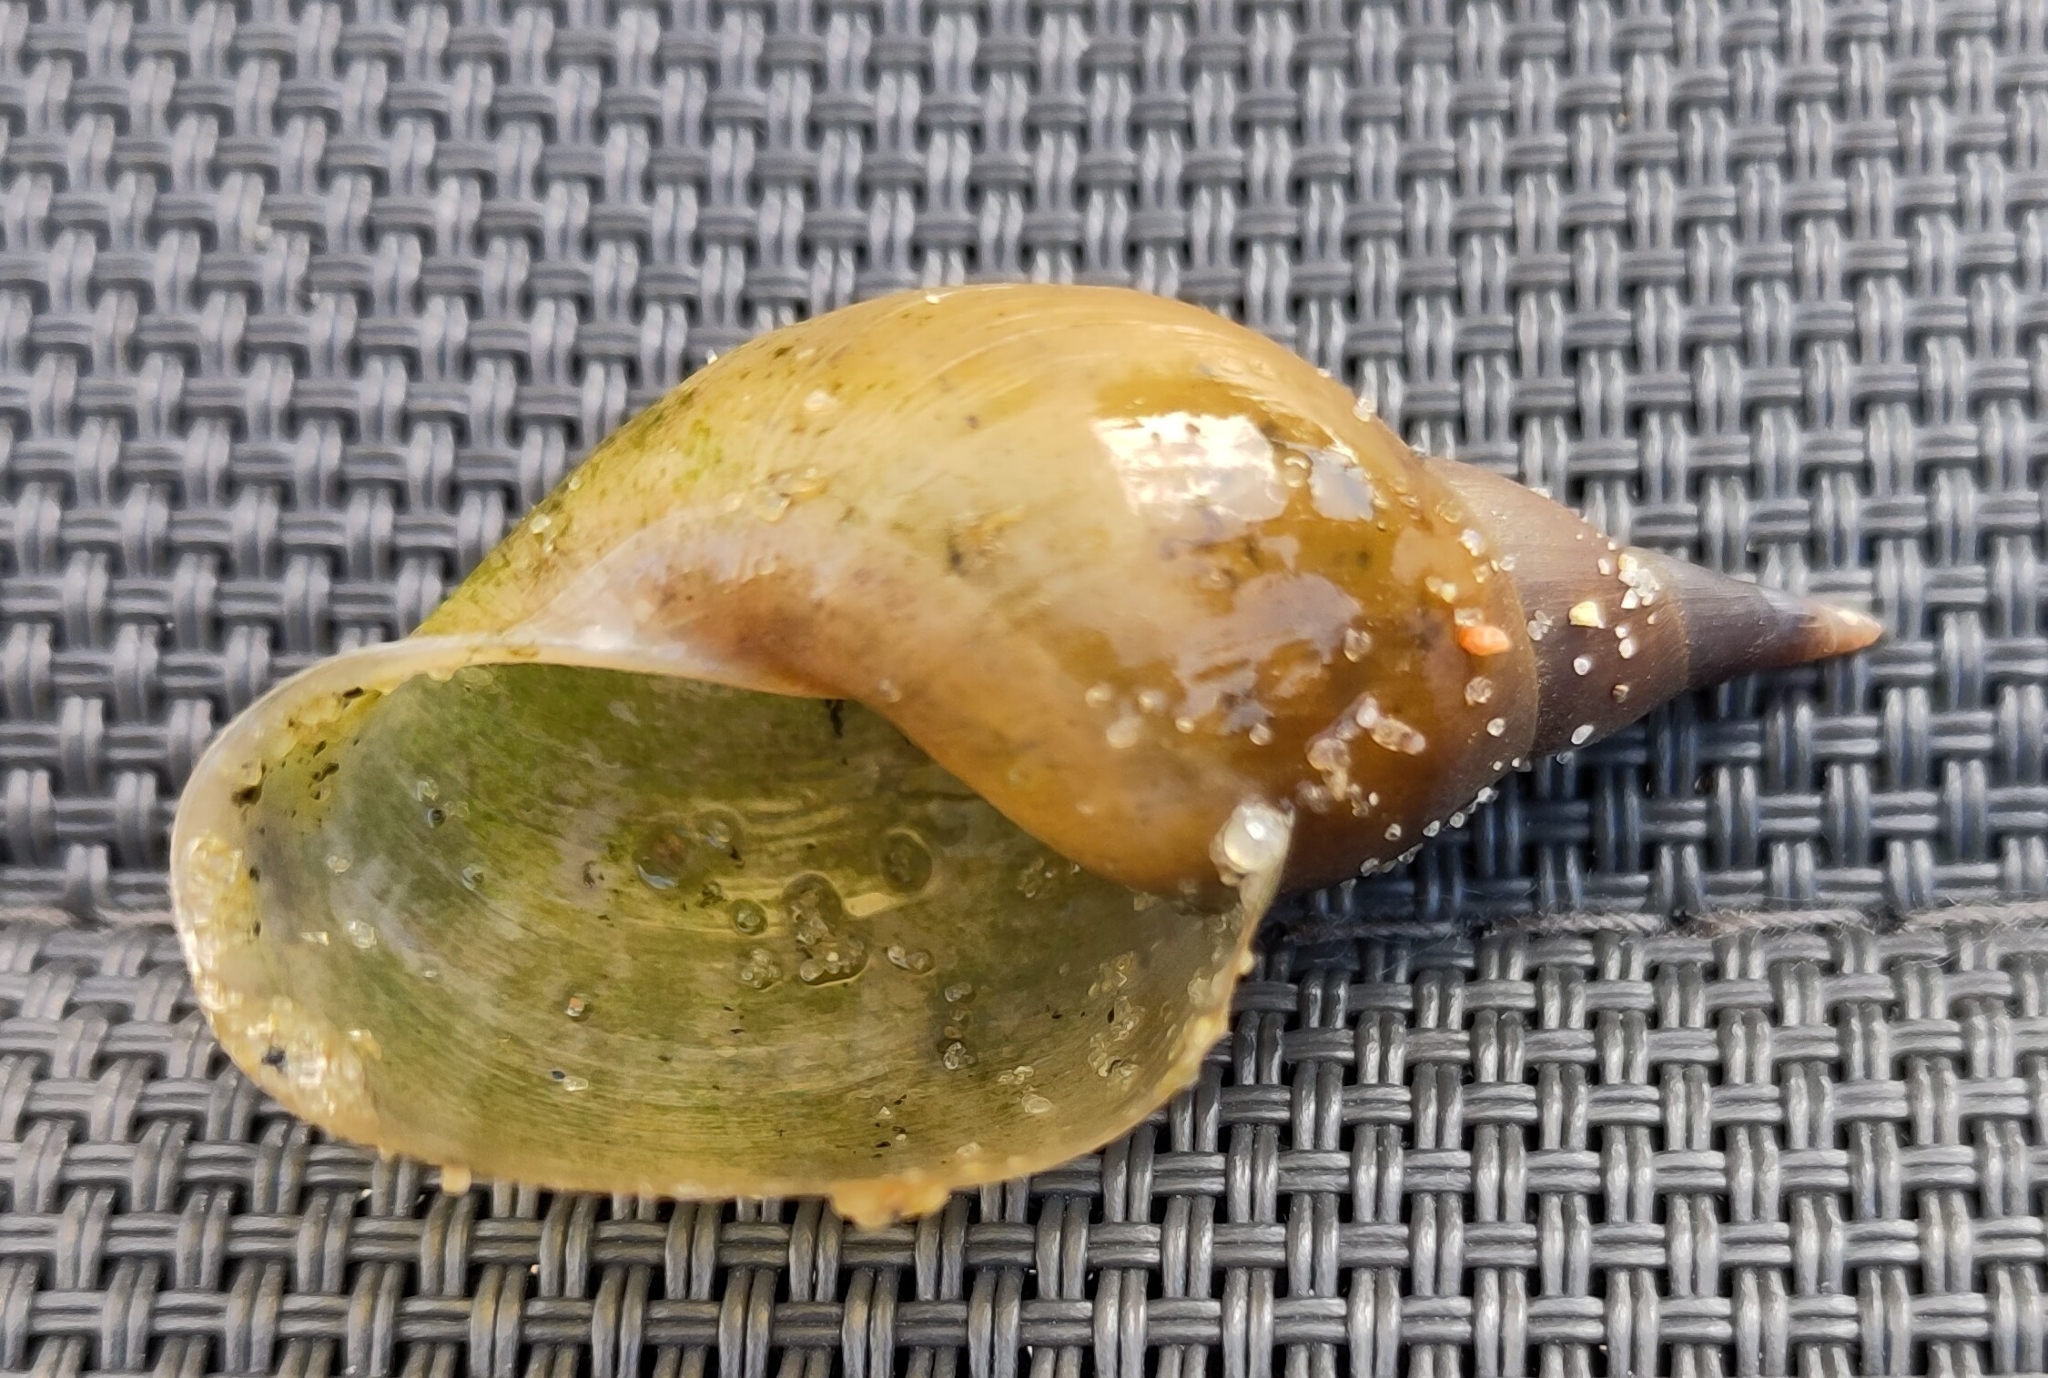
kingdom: Animalia
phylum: Mollusca
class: Gastropoda
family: Lymnaeidae
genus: Lymnaea
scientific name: Lymnaea stagnalis
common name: Great pond snail
